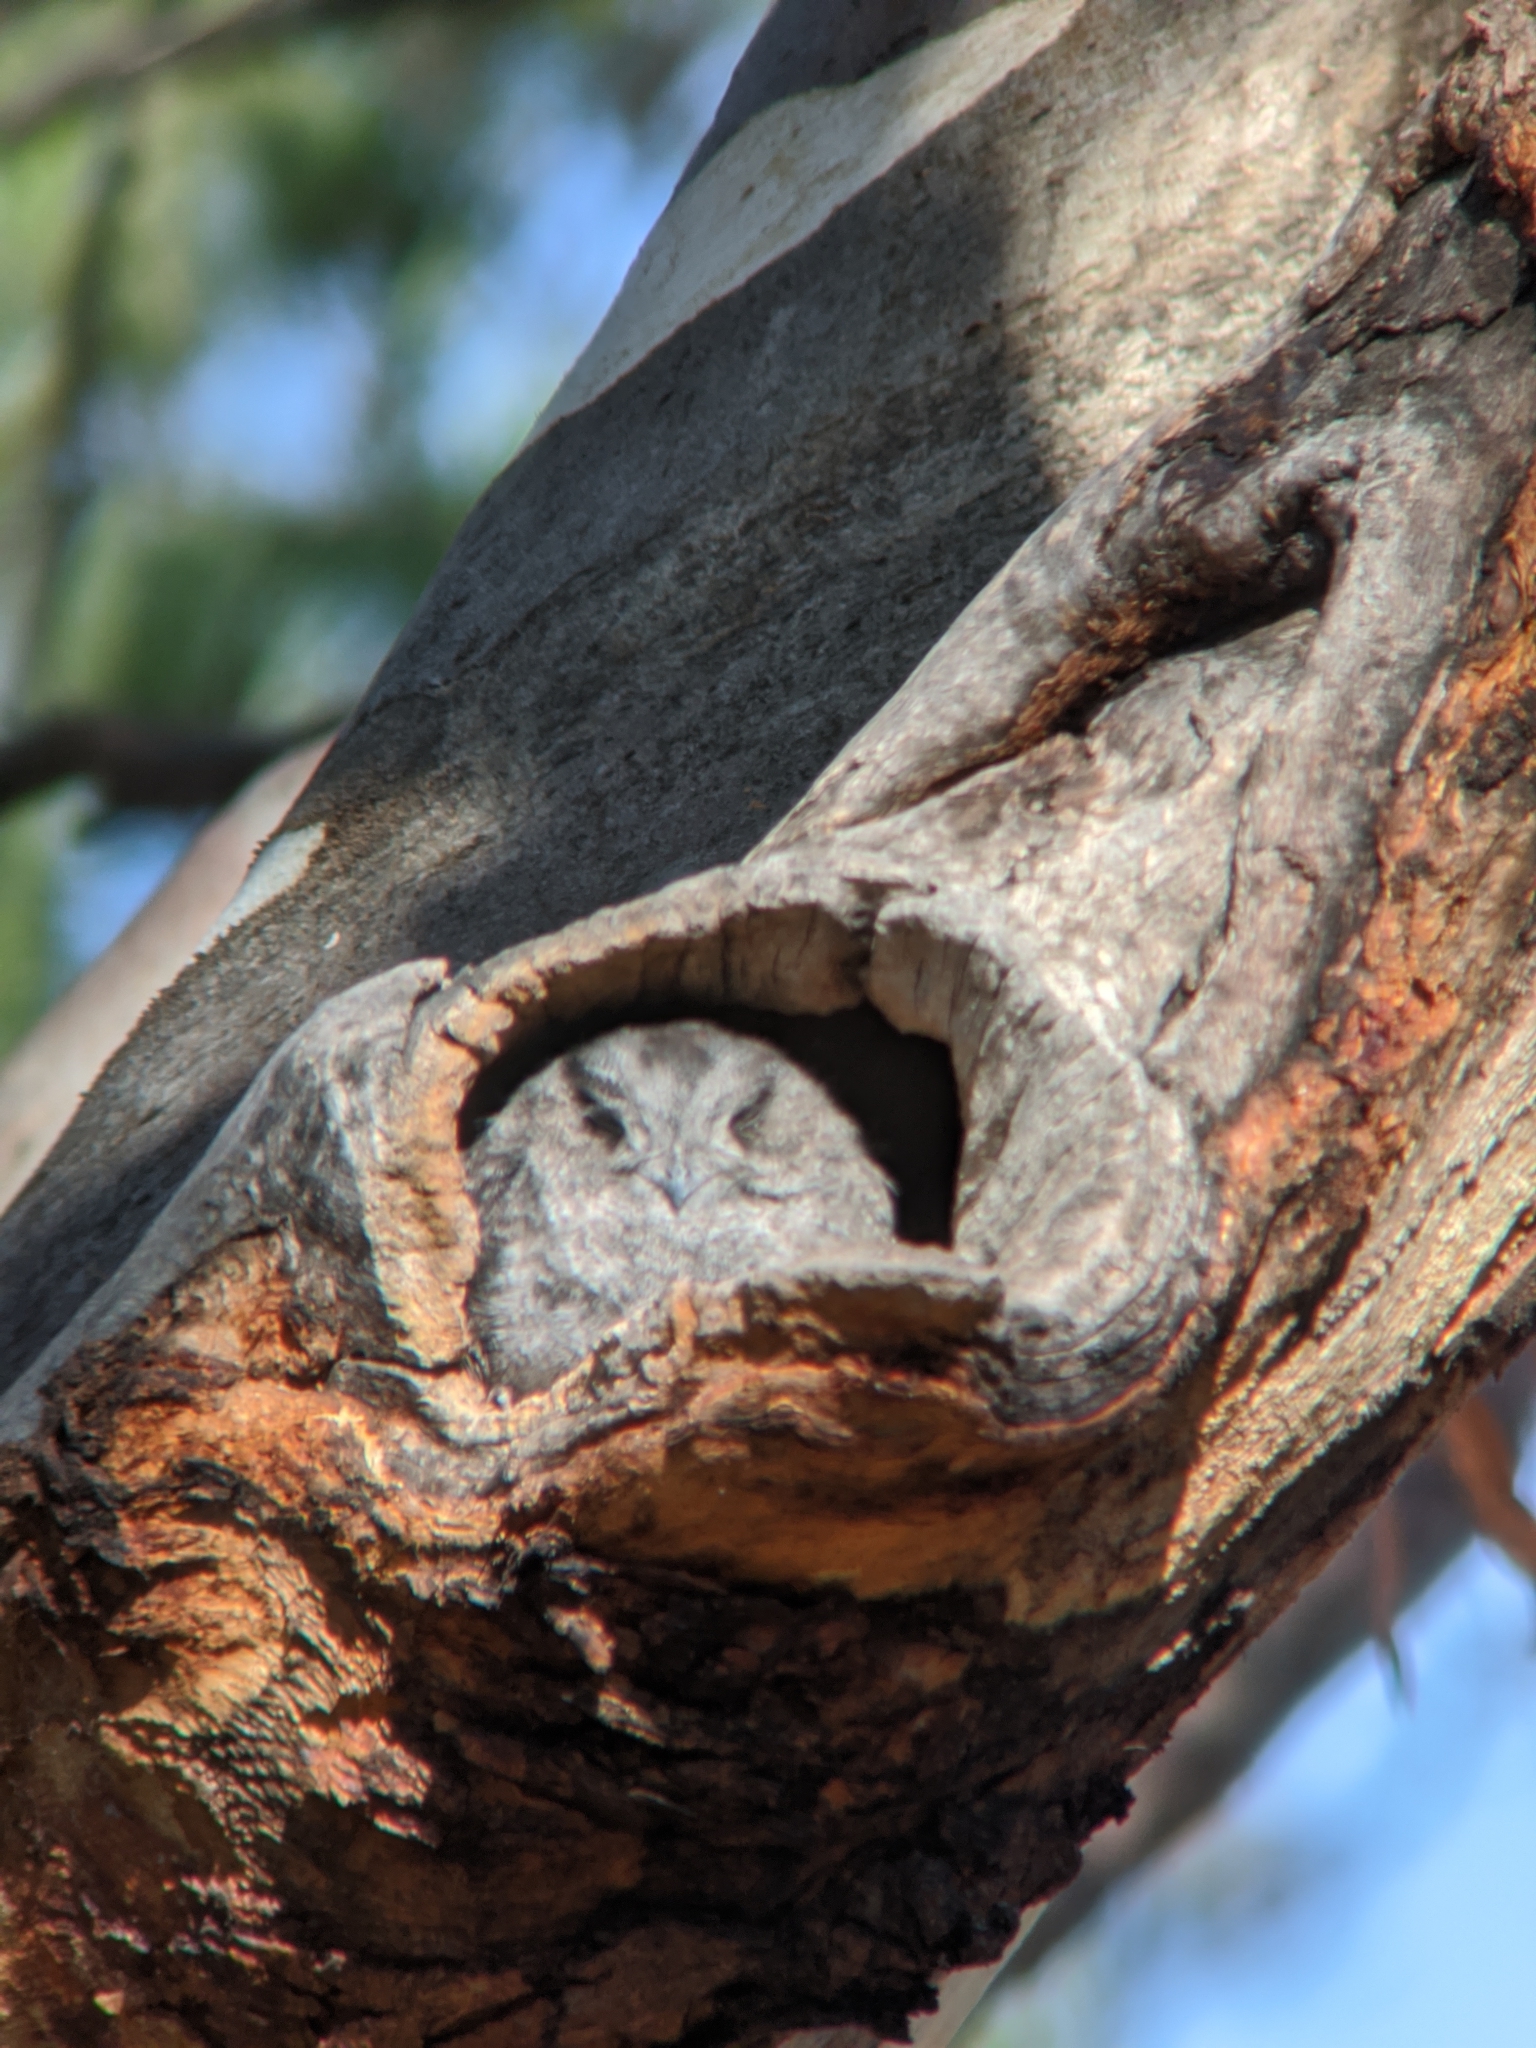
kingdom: Animalia
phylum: Chordata
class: Aves
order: Apodiformes
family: Aegothelidae
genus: Aegotheles
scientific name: Aegotheles cristatus
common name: Australian owlet-nightjar
